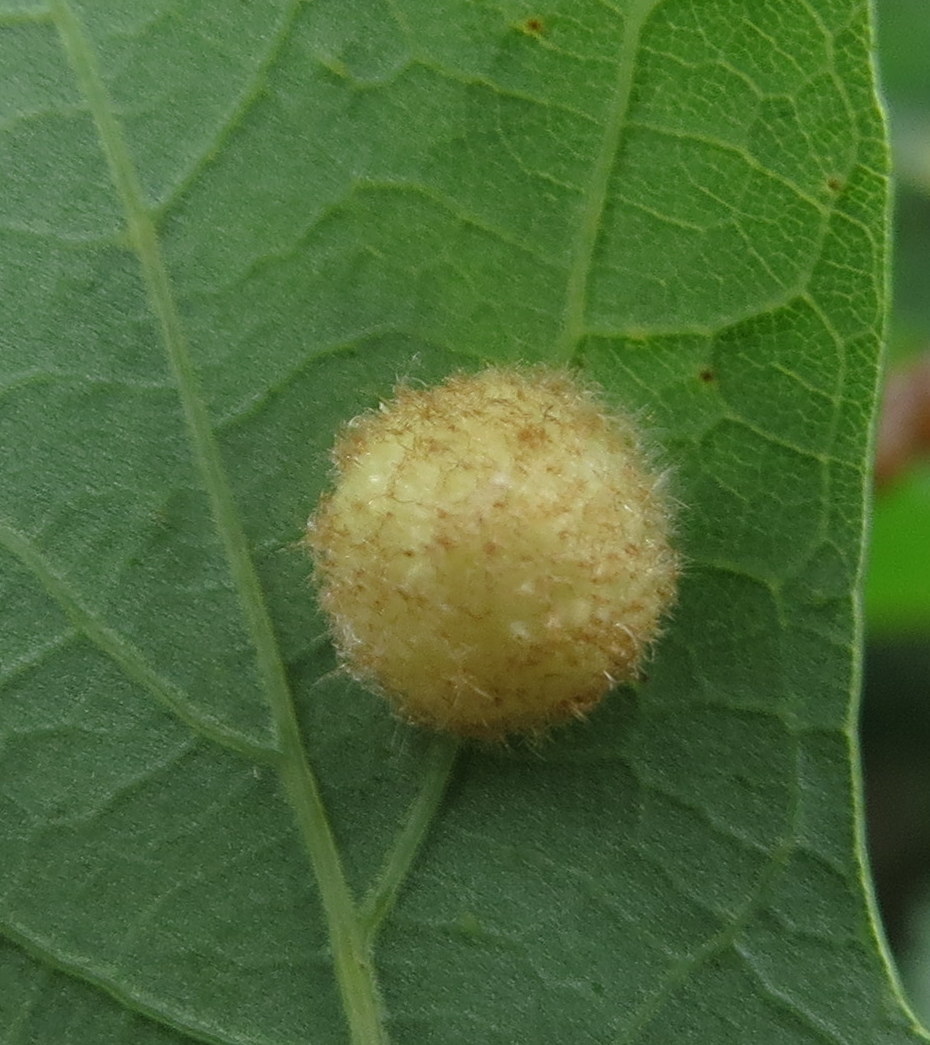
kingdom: Animalia
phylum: Arthropoda
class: Insecta
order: Hymenoptera
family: Cynipidae
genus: Philonix
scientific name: Philonix fulvicollis
